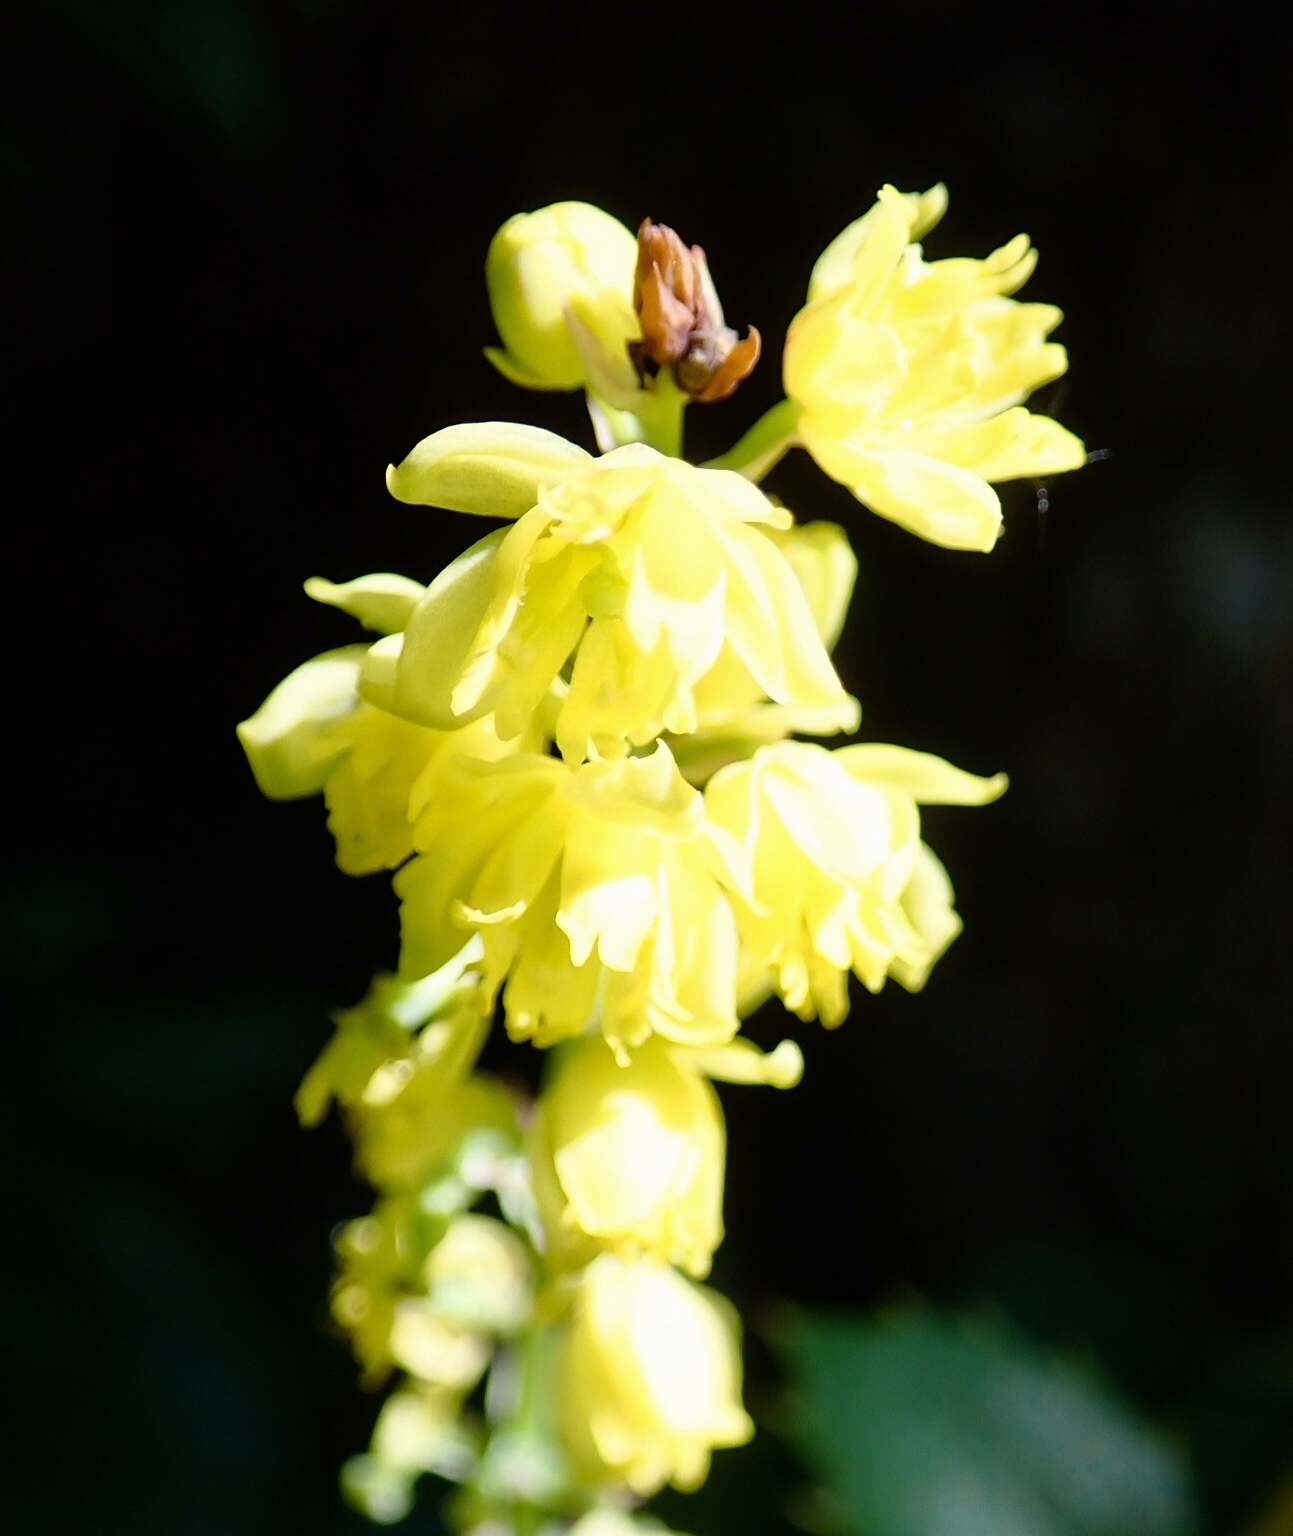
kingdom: Plantae
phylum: Tracheophyta
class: Magnoliopsida
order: Ranunculales
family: Berberidaceae
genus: Mahonia
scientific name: Mahonia nervosa
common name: Cascade oregon-grape
